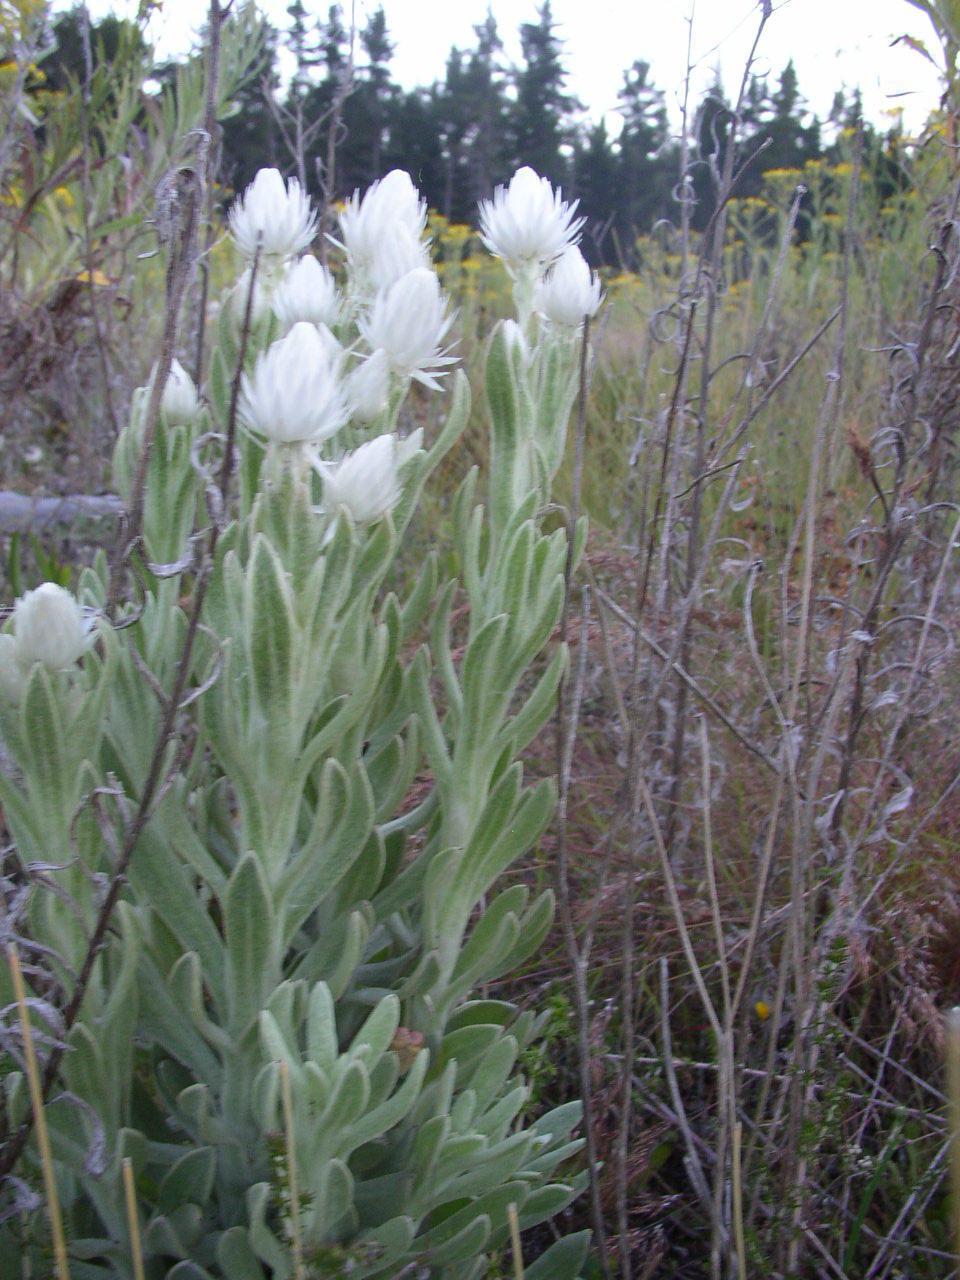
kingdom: Plantae
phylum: Tracheophyta
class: Magnoliopsida
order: Asterales
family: Asteraceae
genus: Syncarpha
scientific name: Syncarpha vestita
